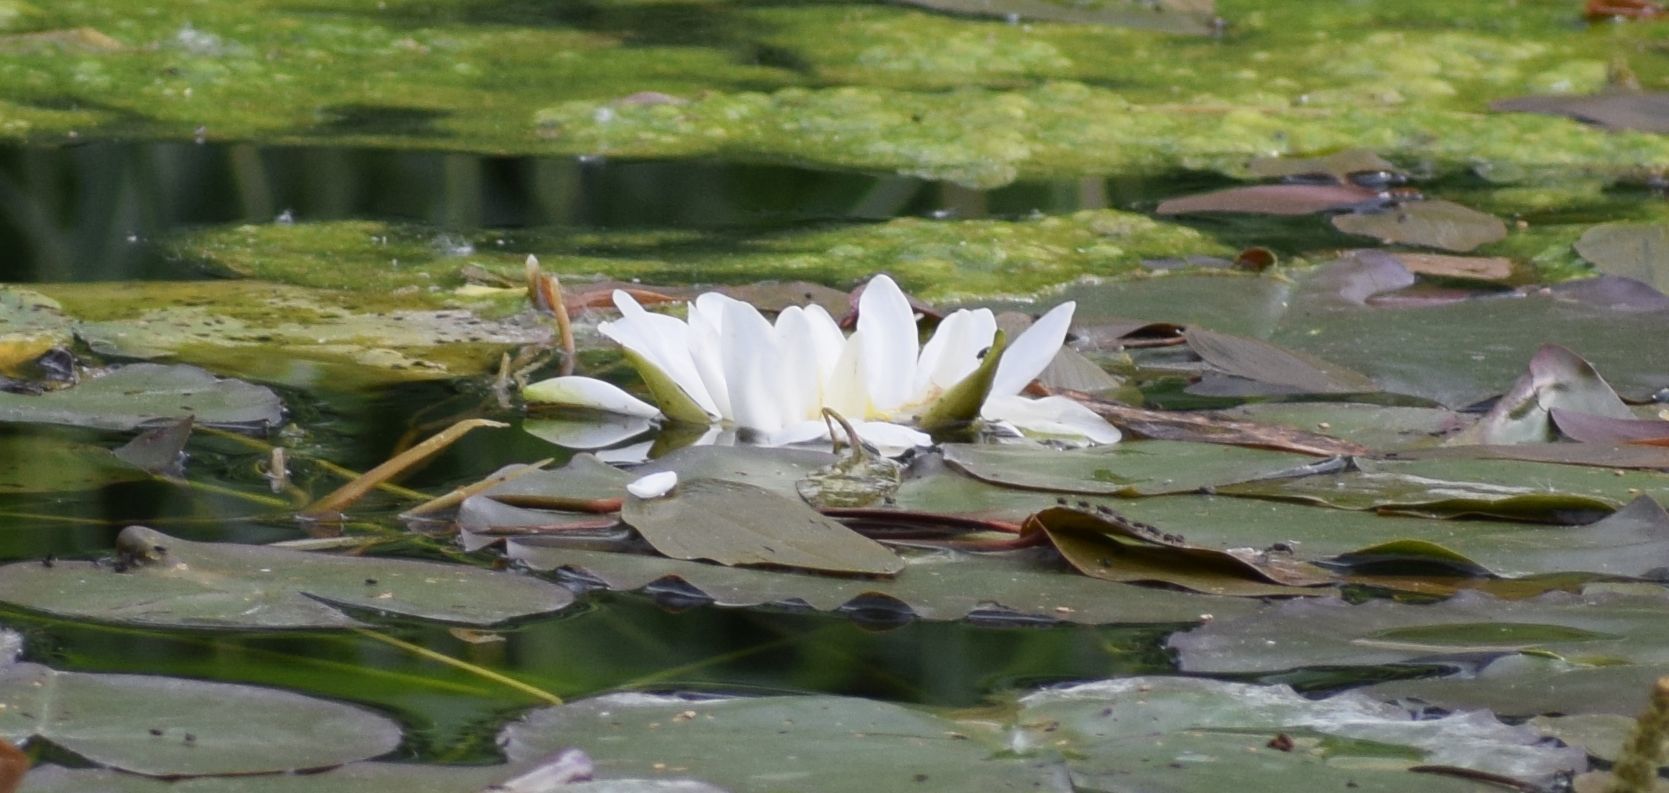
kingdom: Plantae
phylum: Tracheophyta
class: Magnoliopsida
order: Nymphaeales
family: Nymphaeaceae
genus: Nymphaea
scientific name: Nymphaea alba
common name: White water-lily
